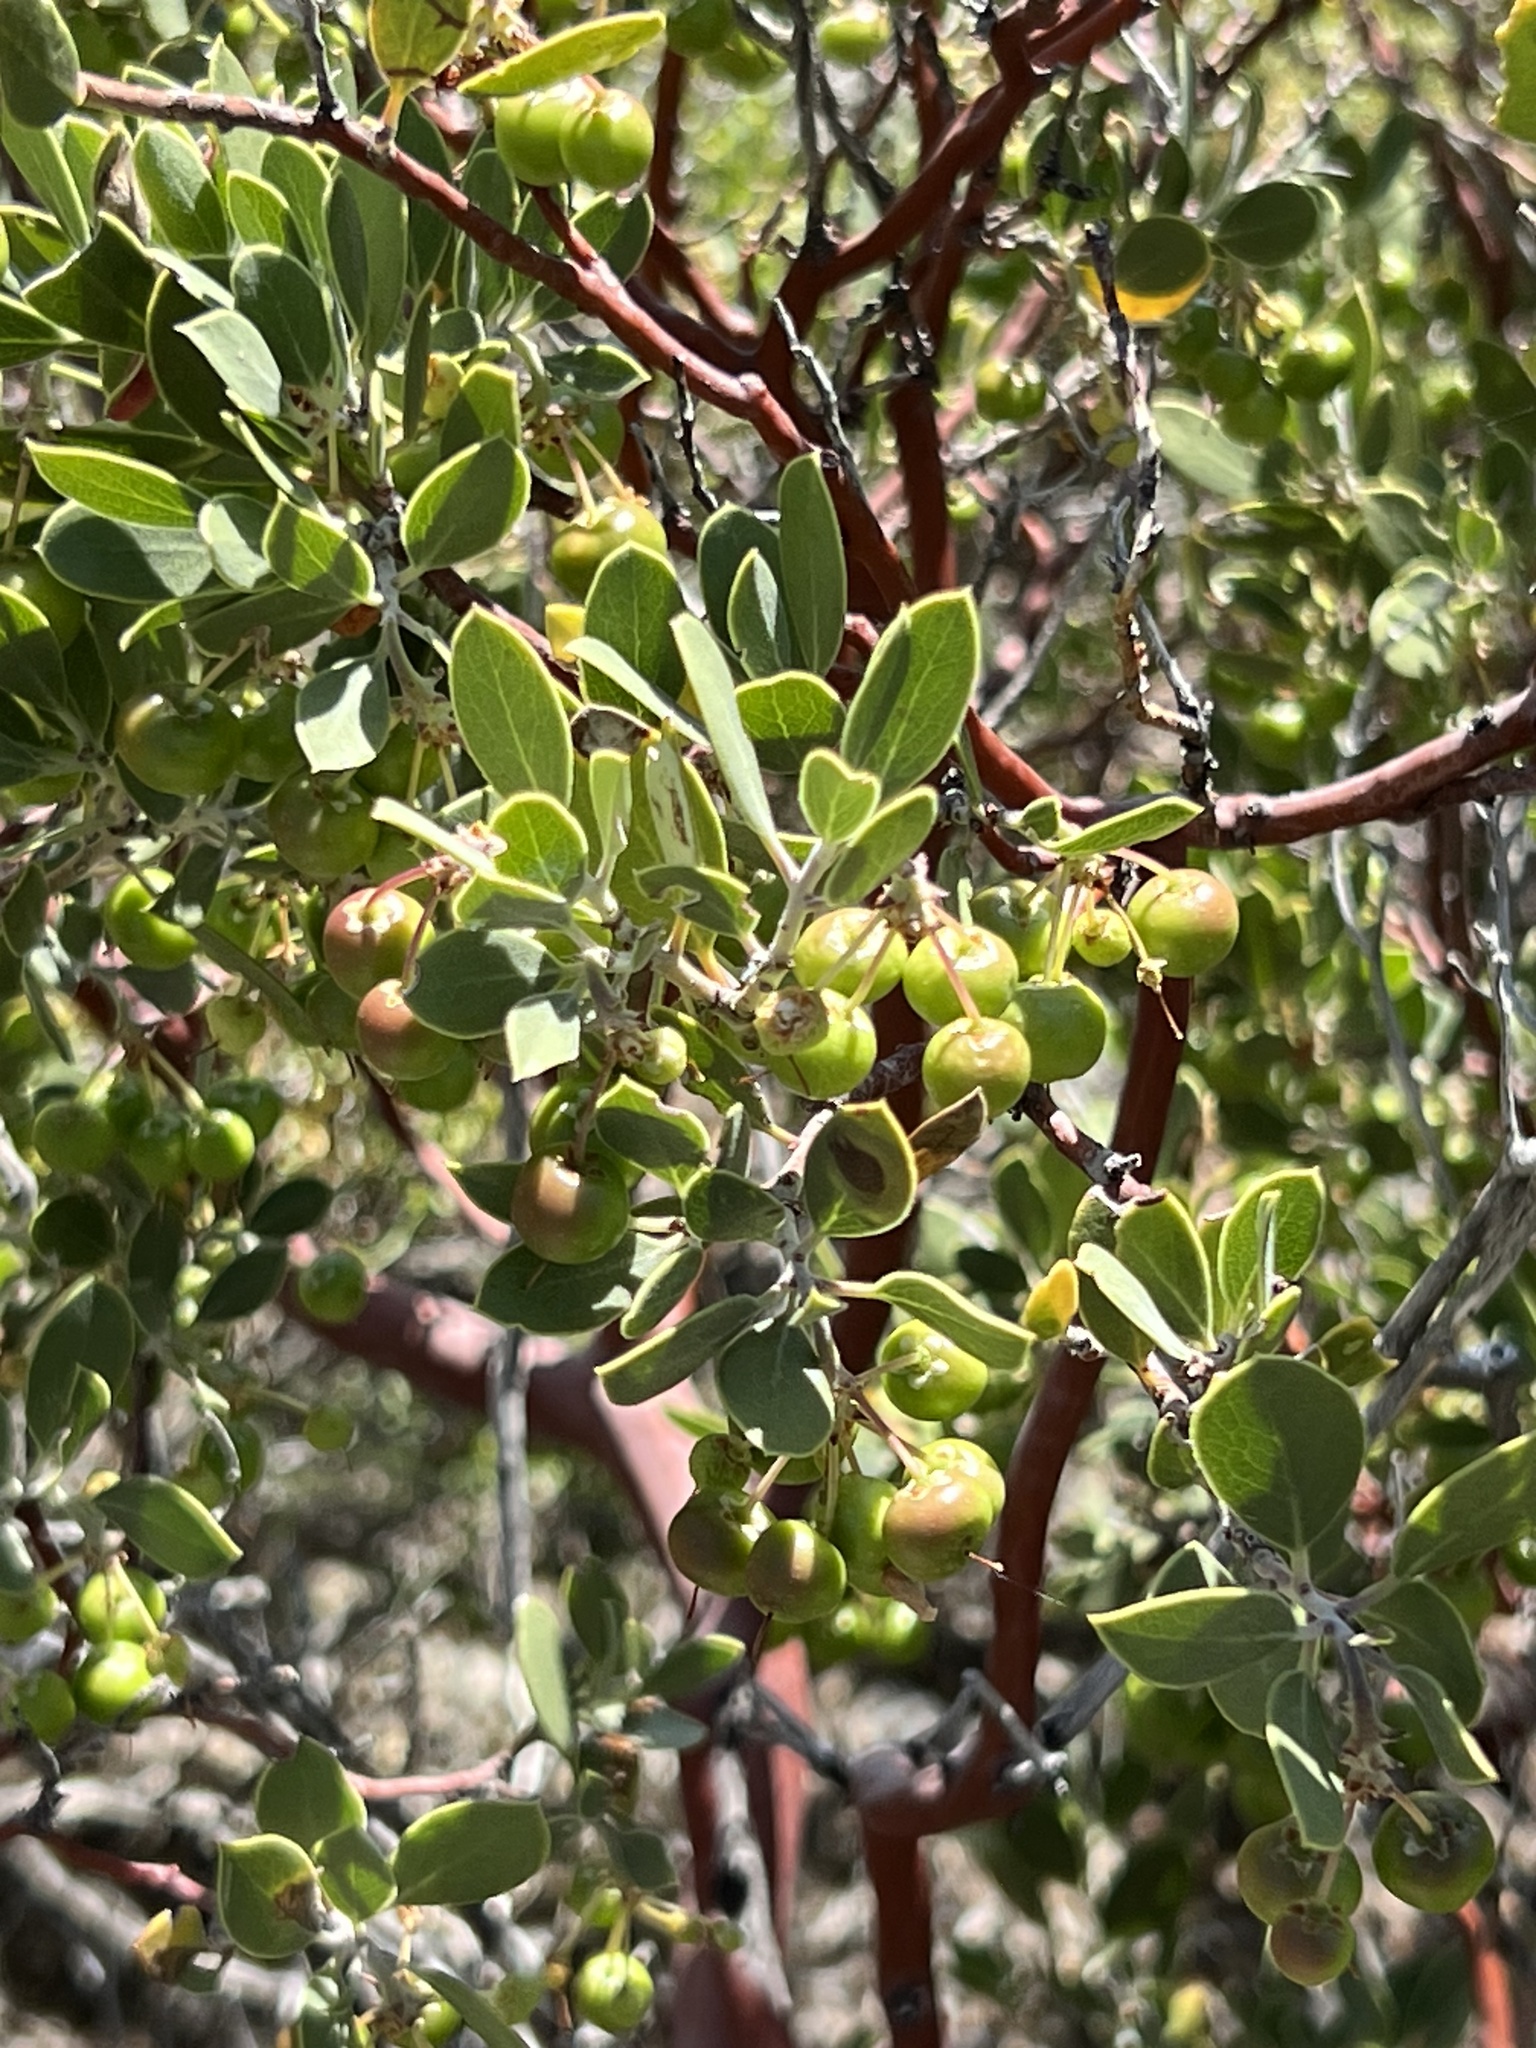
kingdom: Plantae
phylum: Tracheophyta
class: Magnoliopsida
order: Ericales
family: Ericaceae
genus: Arctostaphylos
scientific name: Arctostaphylos pungens
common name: Mexican manzanita
